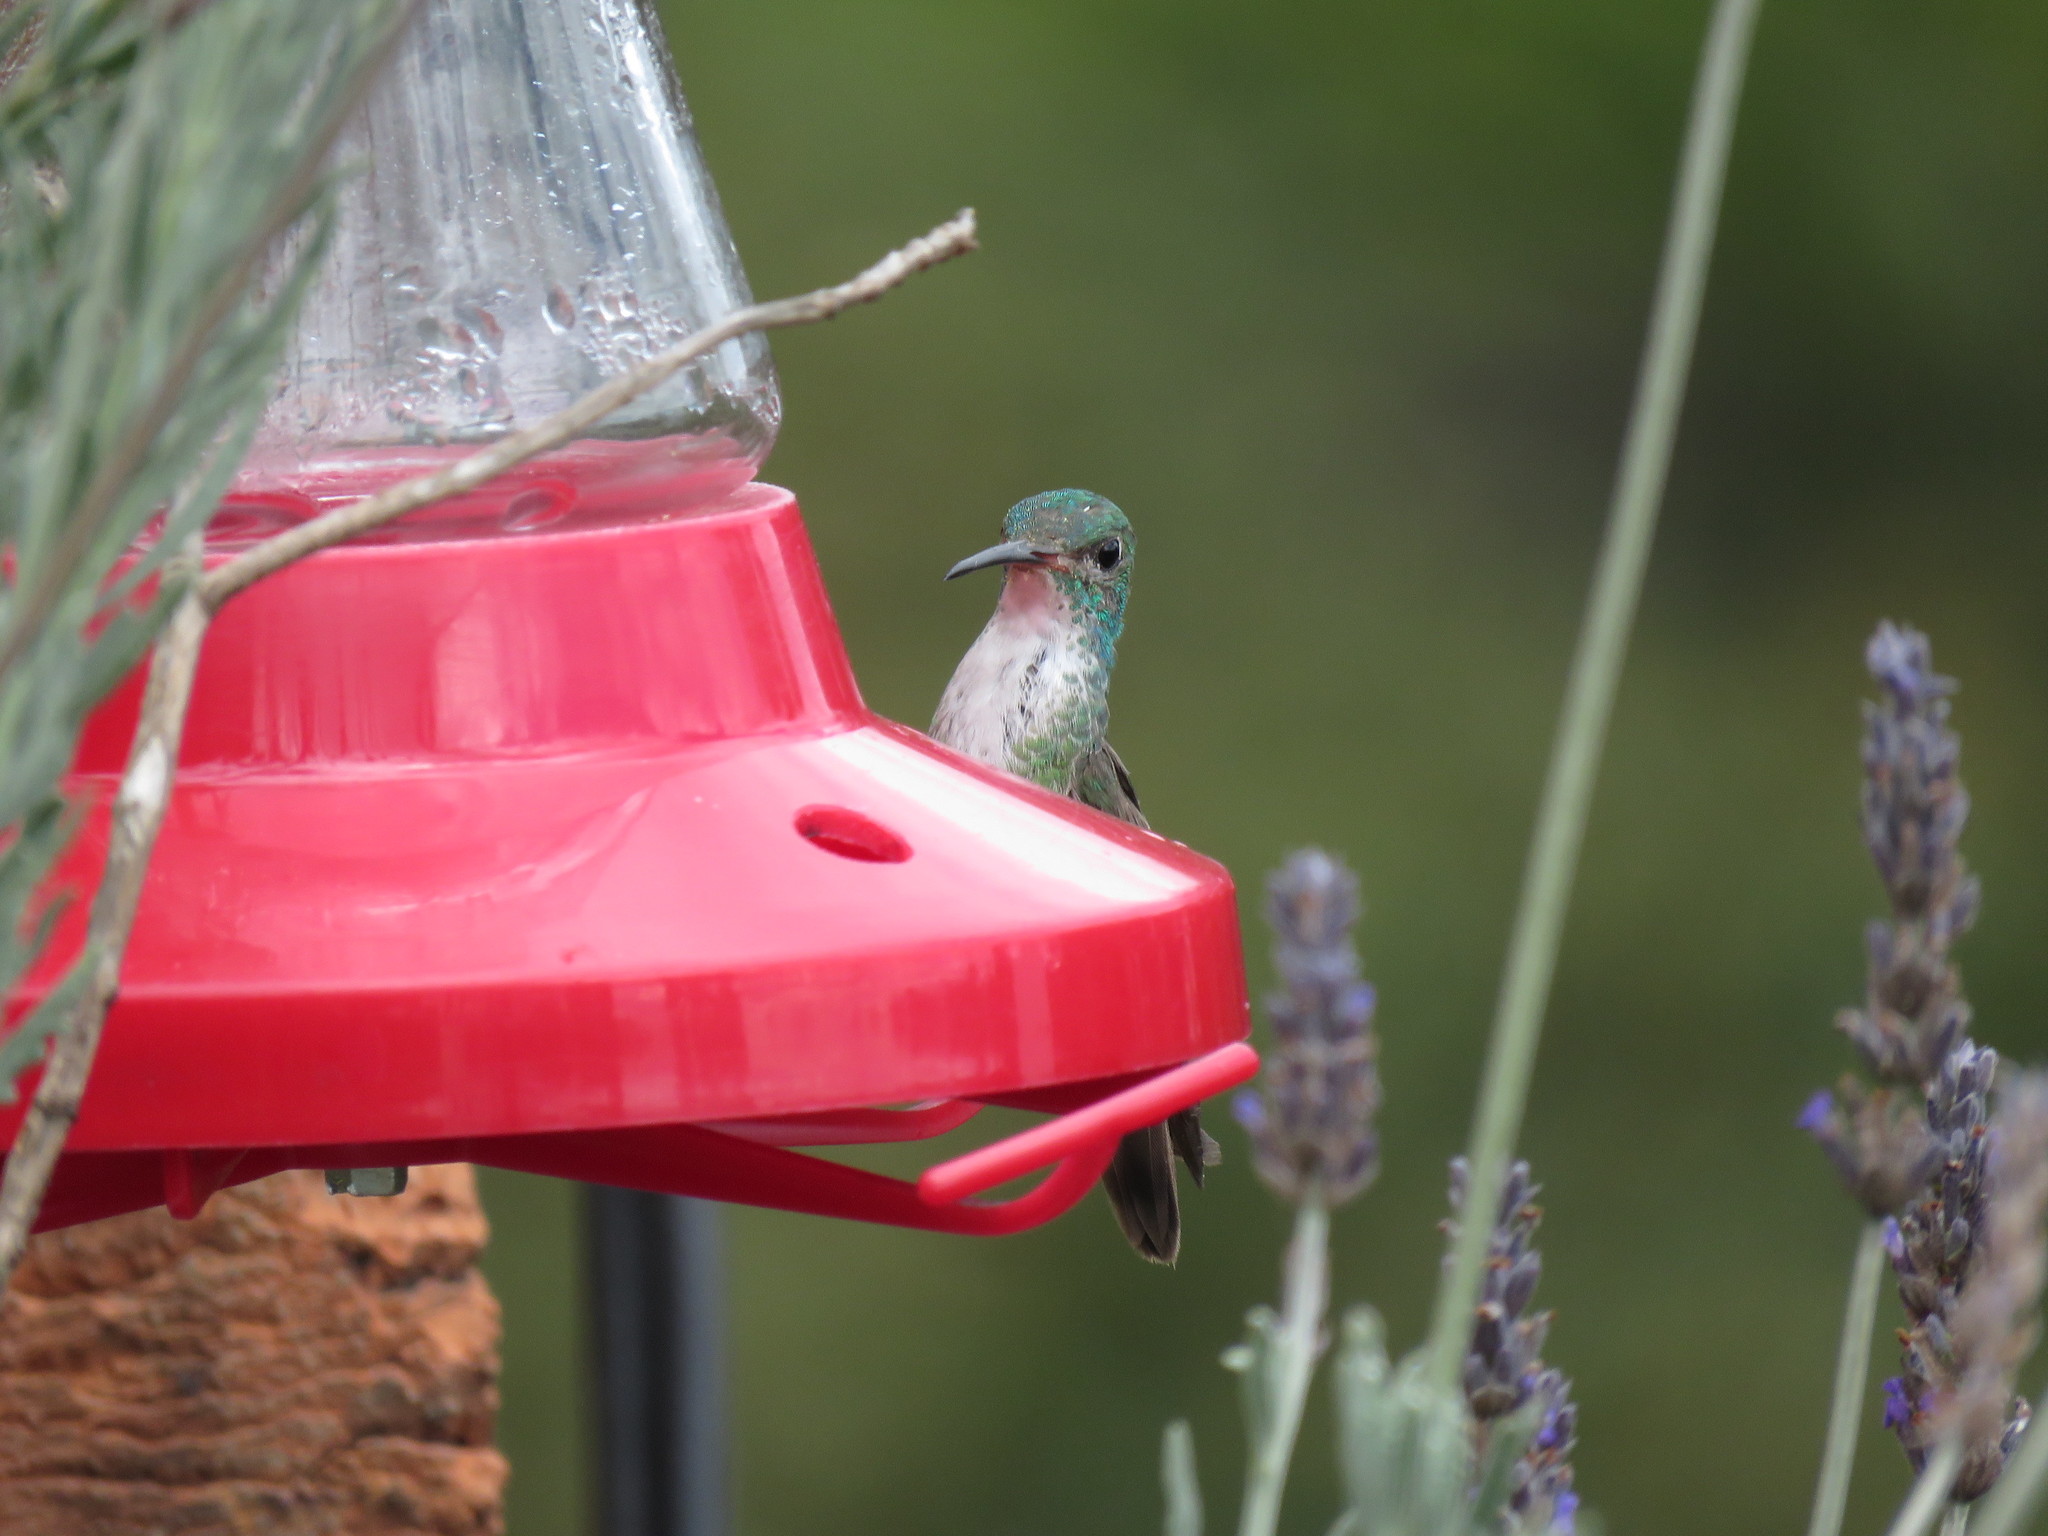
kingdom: Animalia
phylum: Chordata
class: Aves
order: Apodiformes
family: Trochilidae
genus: Uranomitra
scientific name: Uranomitra franciae
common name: Andean emerald
